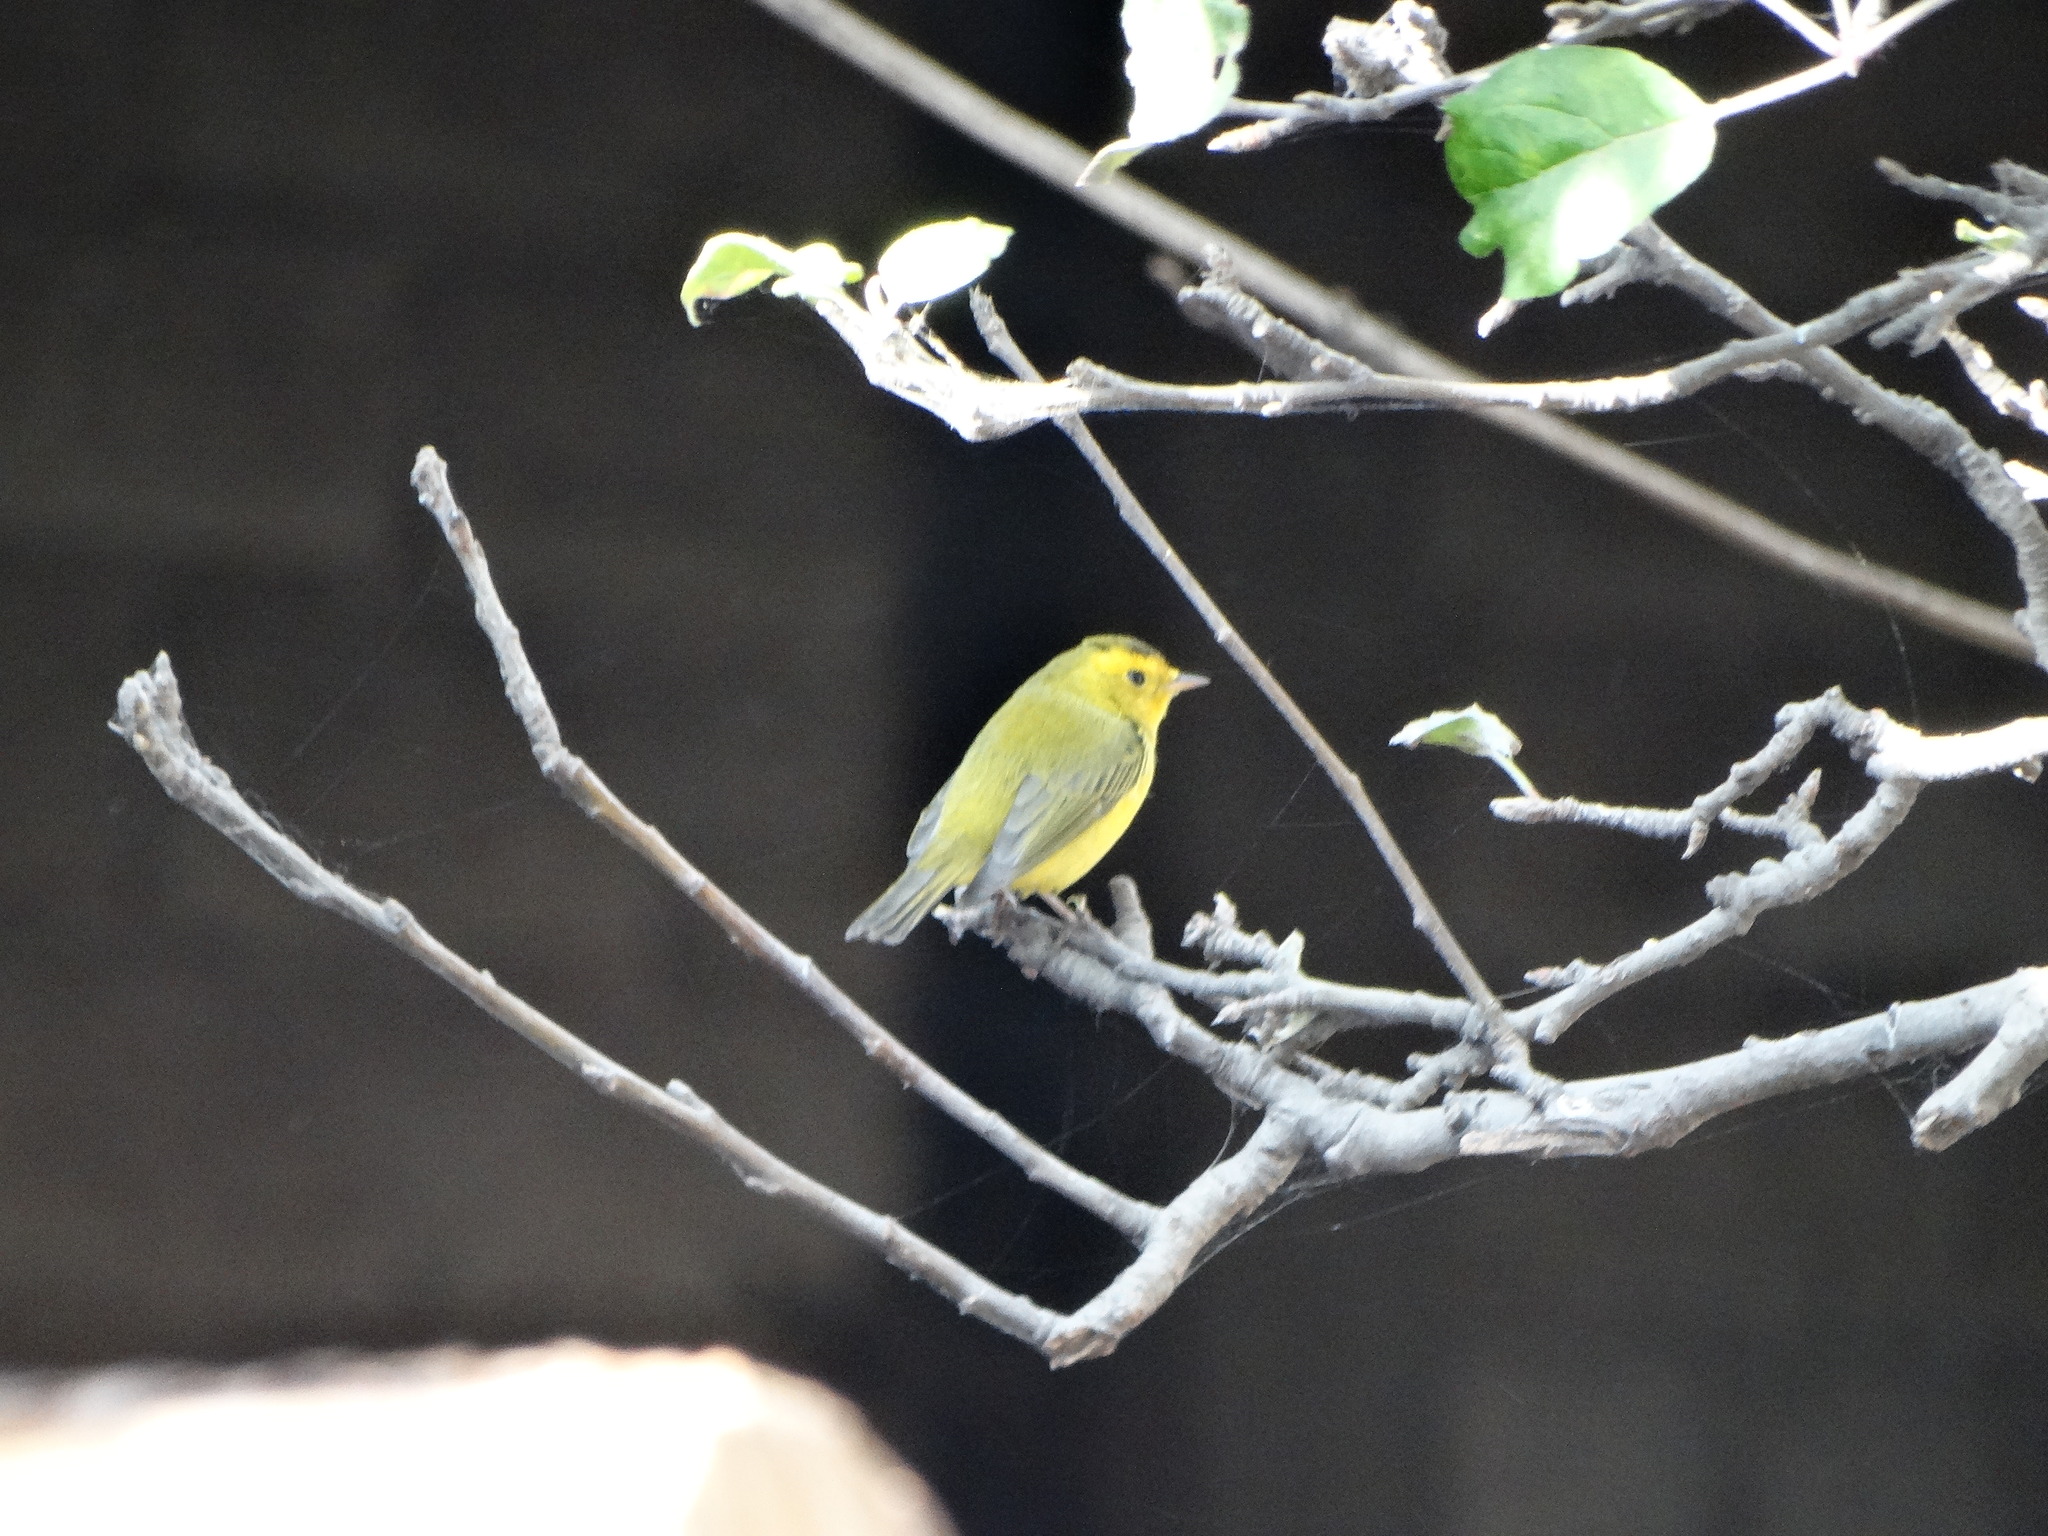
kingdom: Animalia
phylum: Chordata
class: Aves
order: Passeriformes
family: Parulidae
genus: Cardellina
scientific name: Cardellina pusilla
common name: Wilson's warbler
